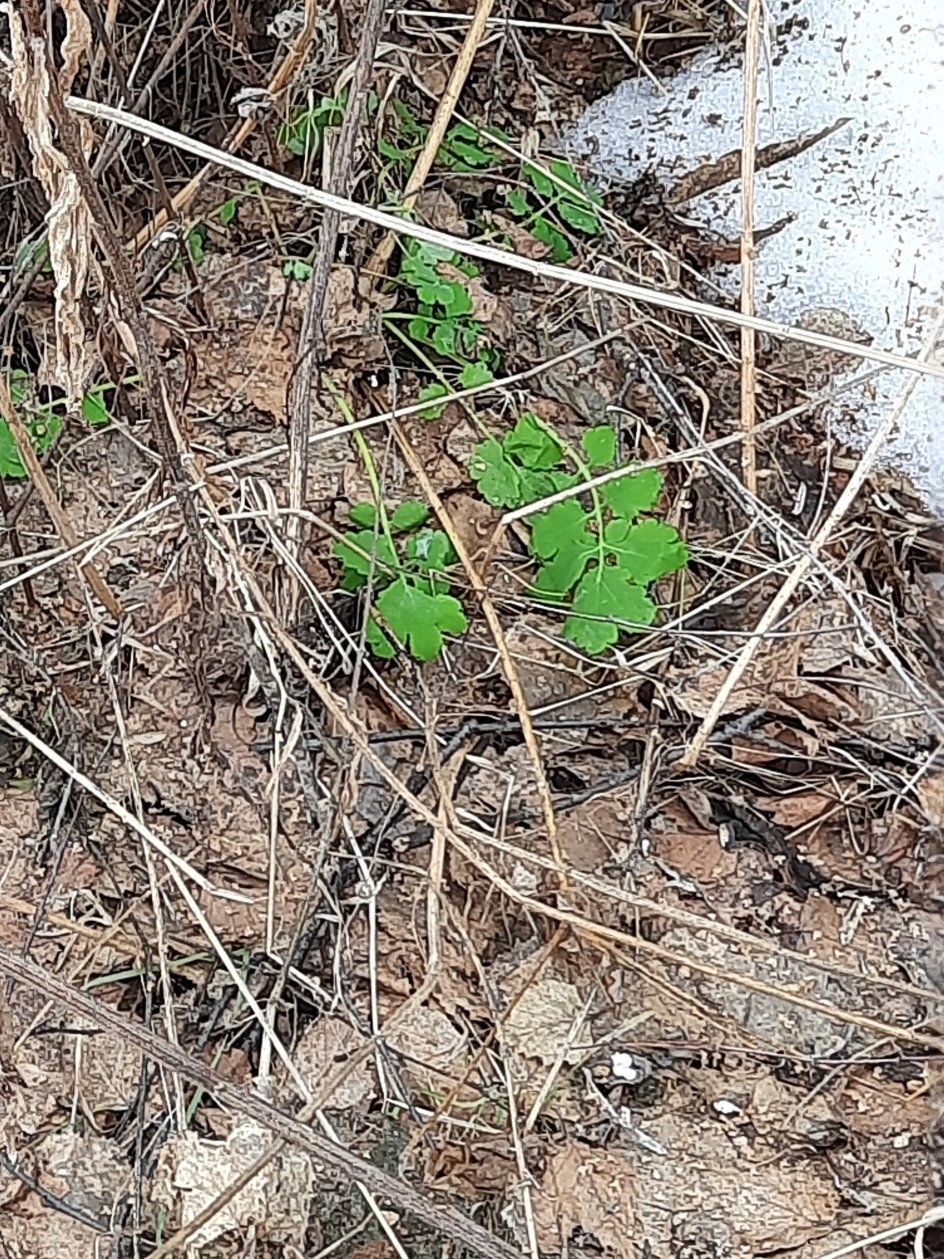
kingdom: Plantae
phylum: Tracheophyta
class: Magnoliopsida
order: Ranunculales
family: Papaveraceae
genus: Chelidonium
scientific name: Chelidonium majus
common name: Greater celandine
